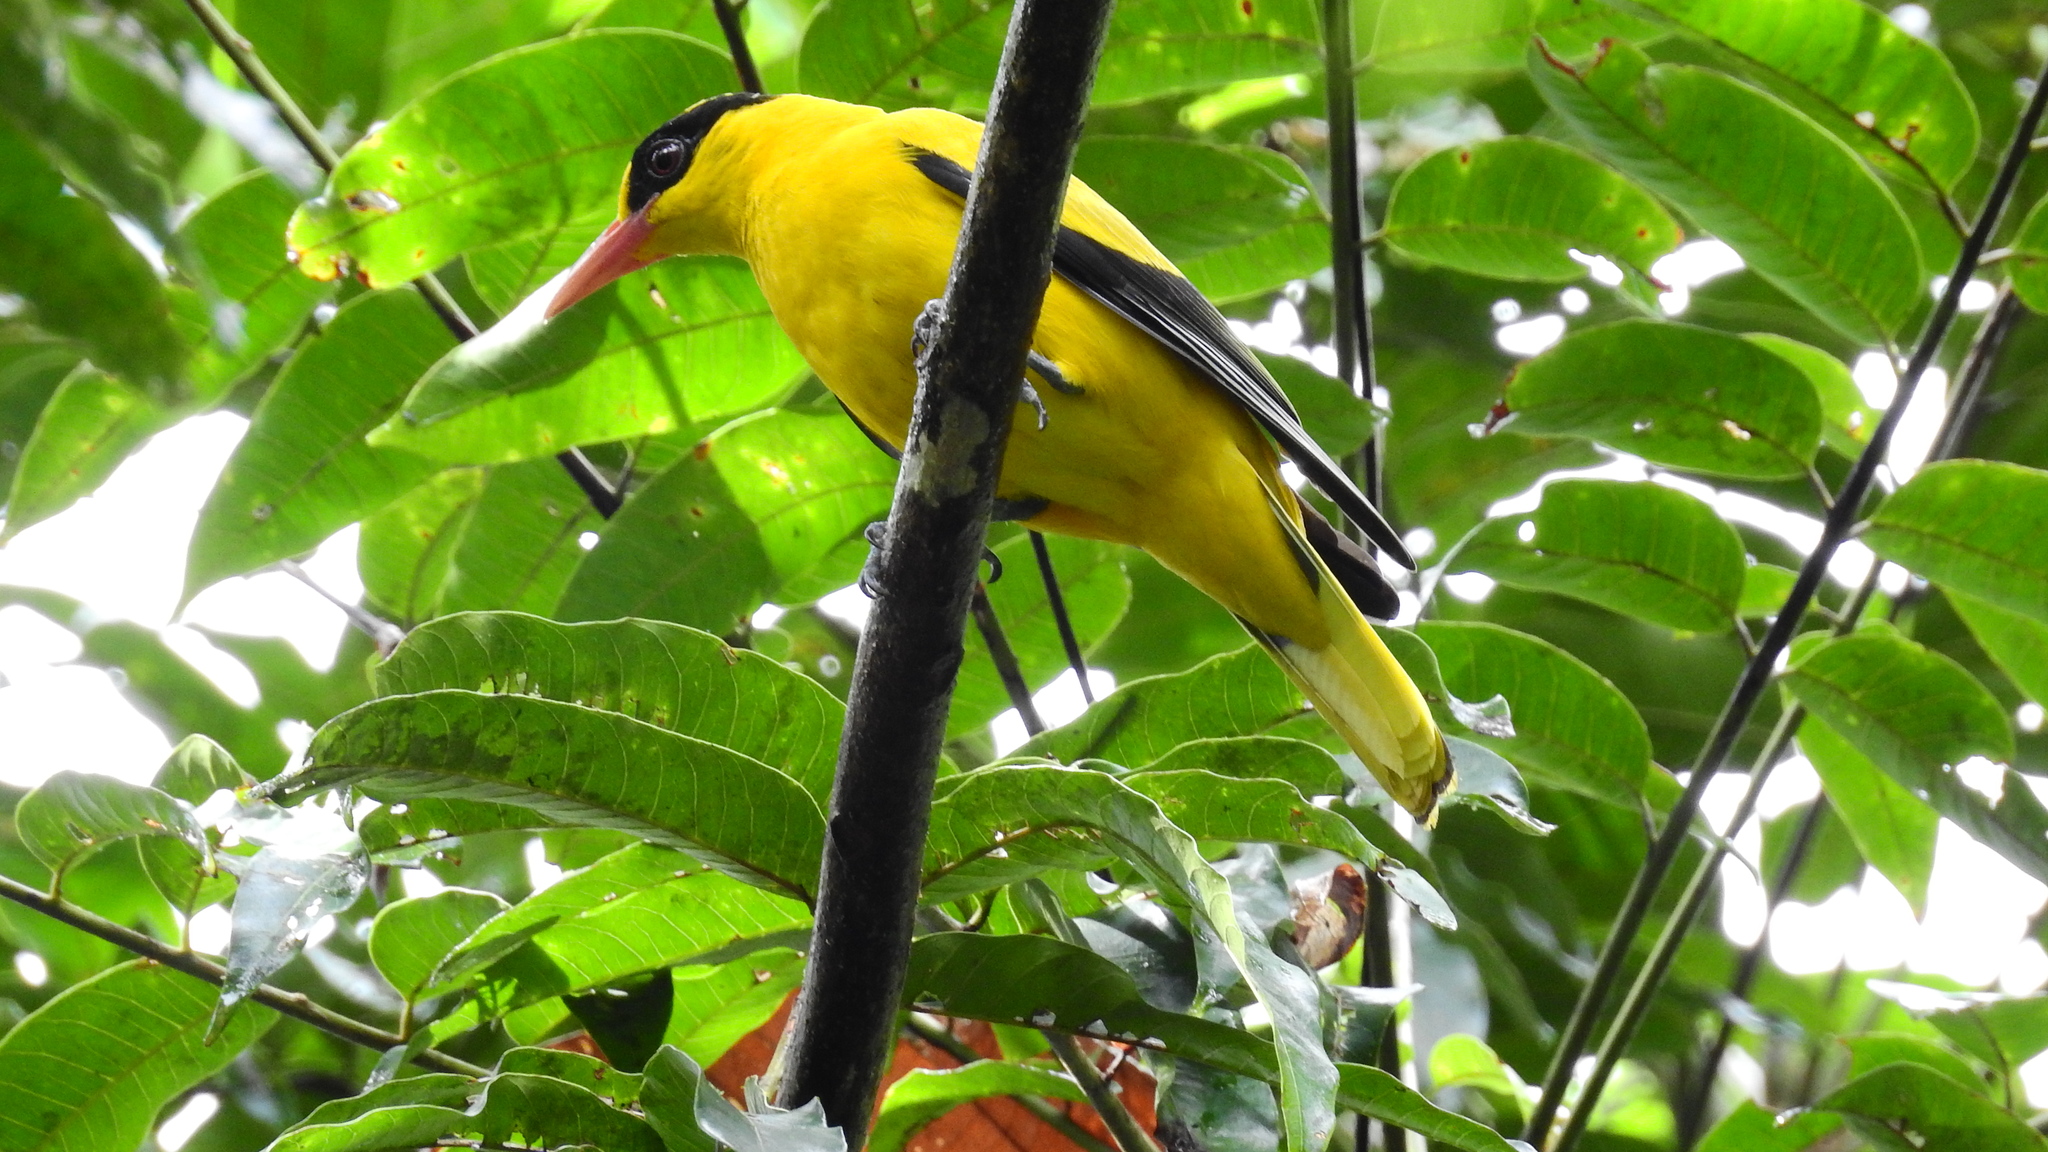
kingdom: Animalia
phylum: Chordata
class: Aves
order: Passeriformes
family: Oriolidae
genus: Oriolus
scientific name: Oriolus chinensis
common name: Black-naped oriole
